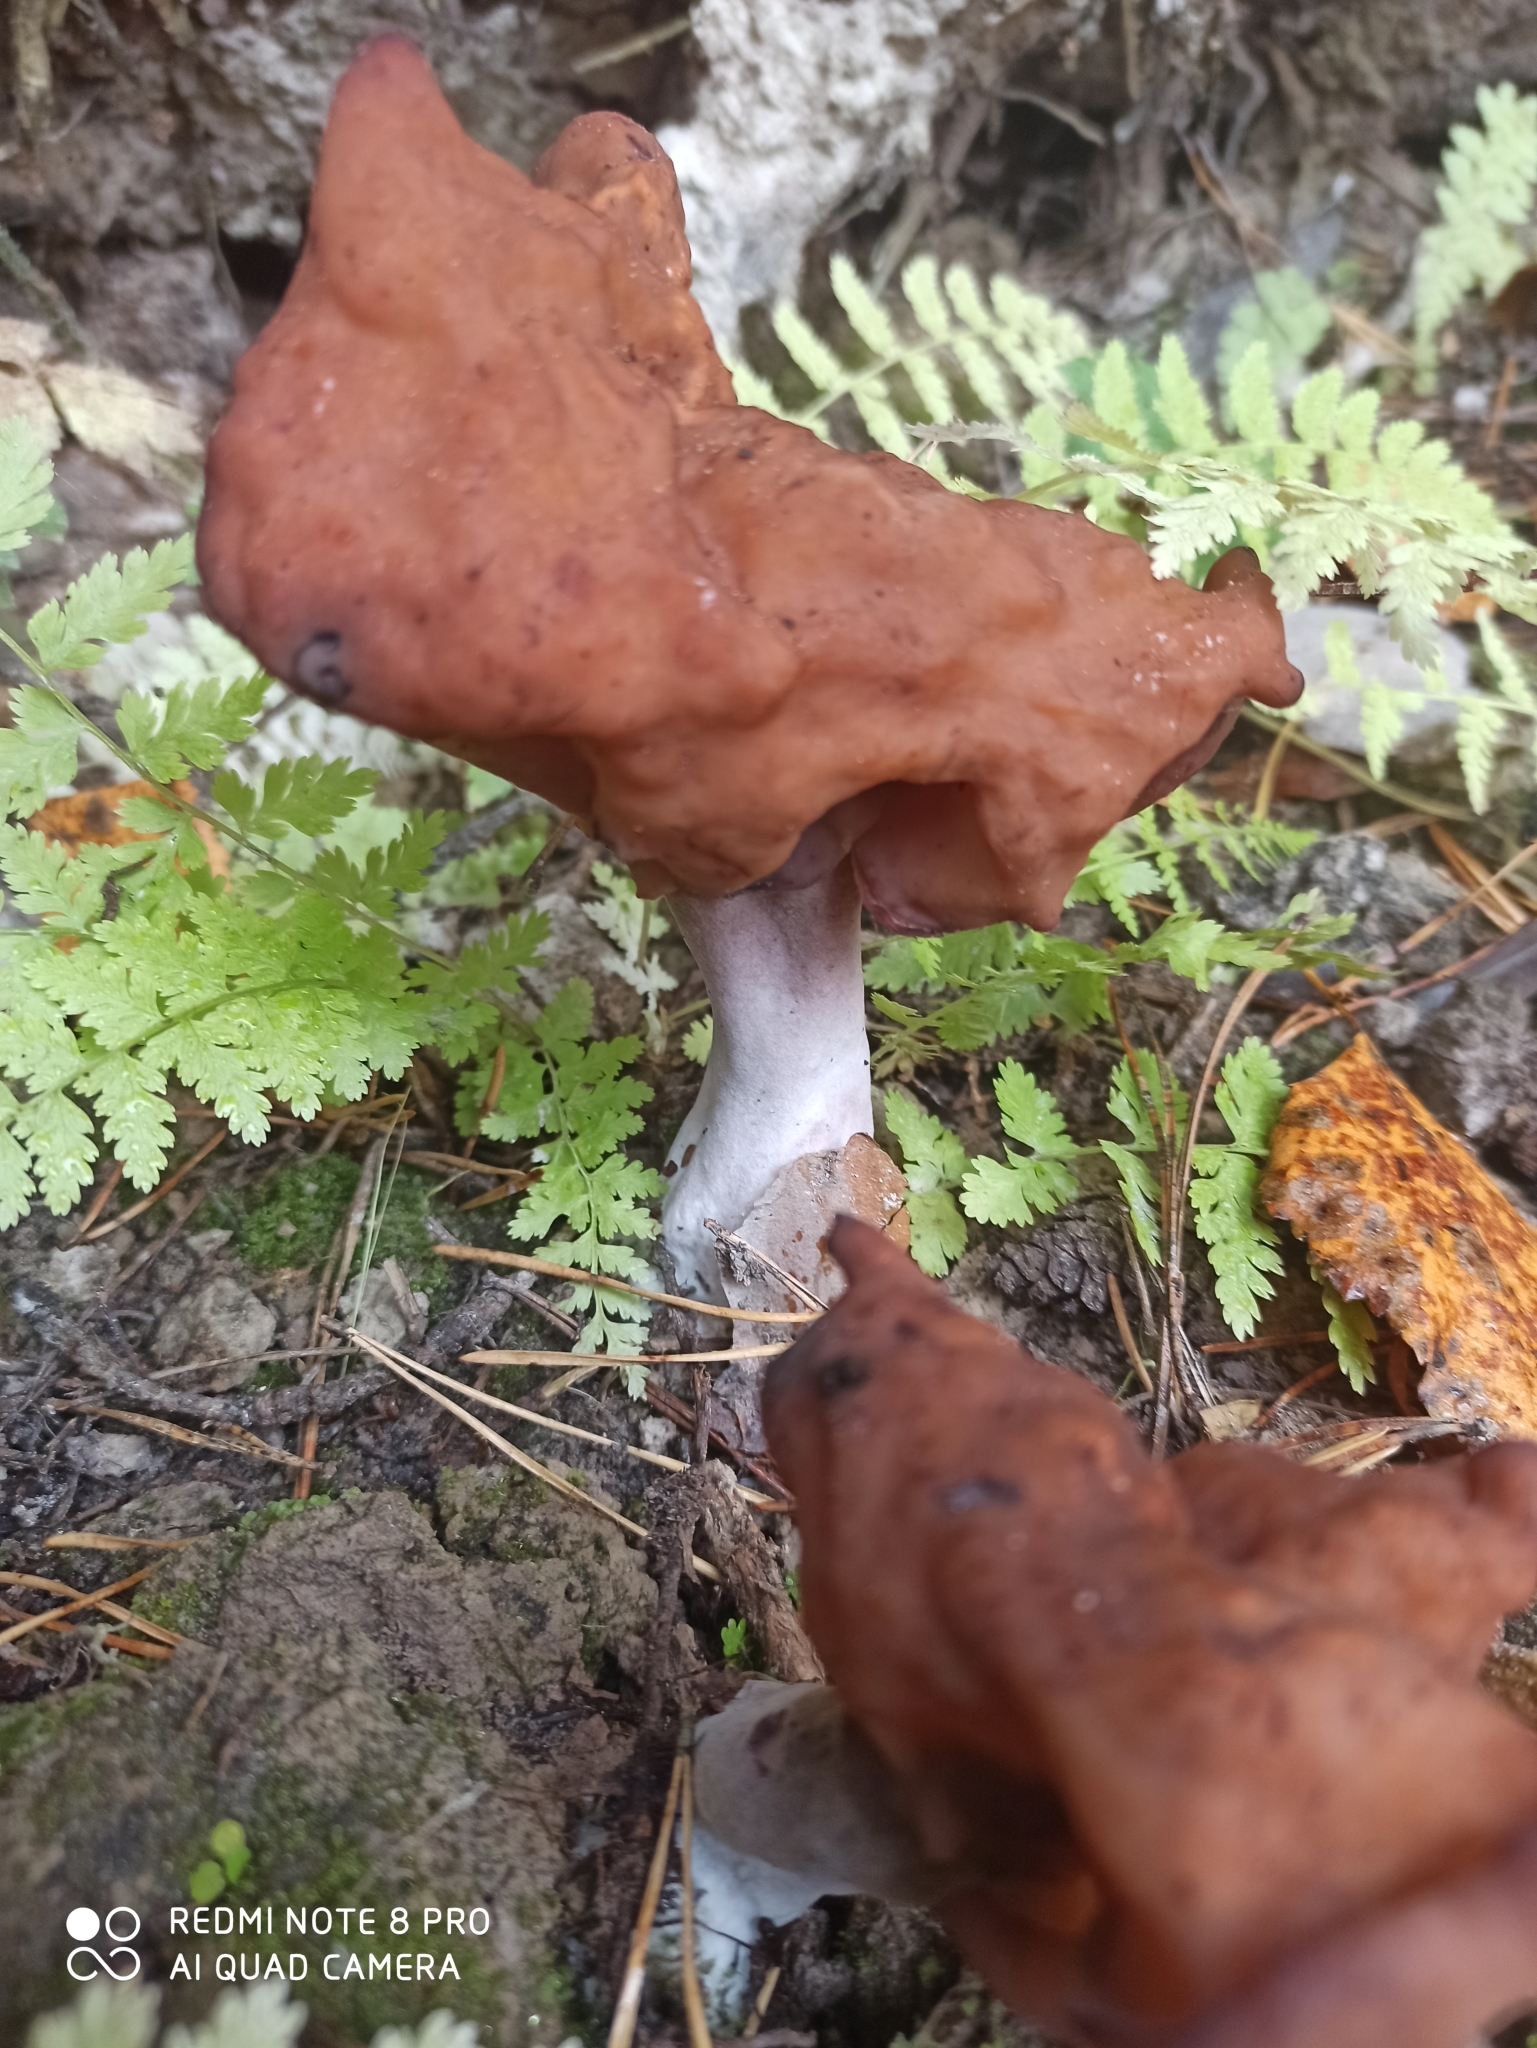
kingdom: Fungi
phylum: Ascomycota
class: Pezizomycetes
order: Pezizales
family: Discinaceae
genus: Gyromitra
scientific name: Gyromitra infula
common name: Pouched false morel
